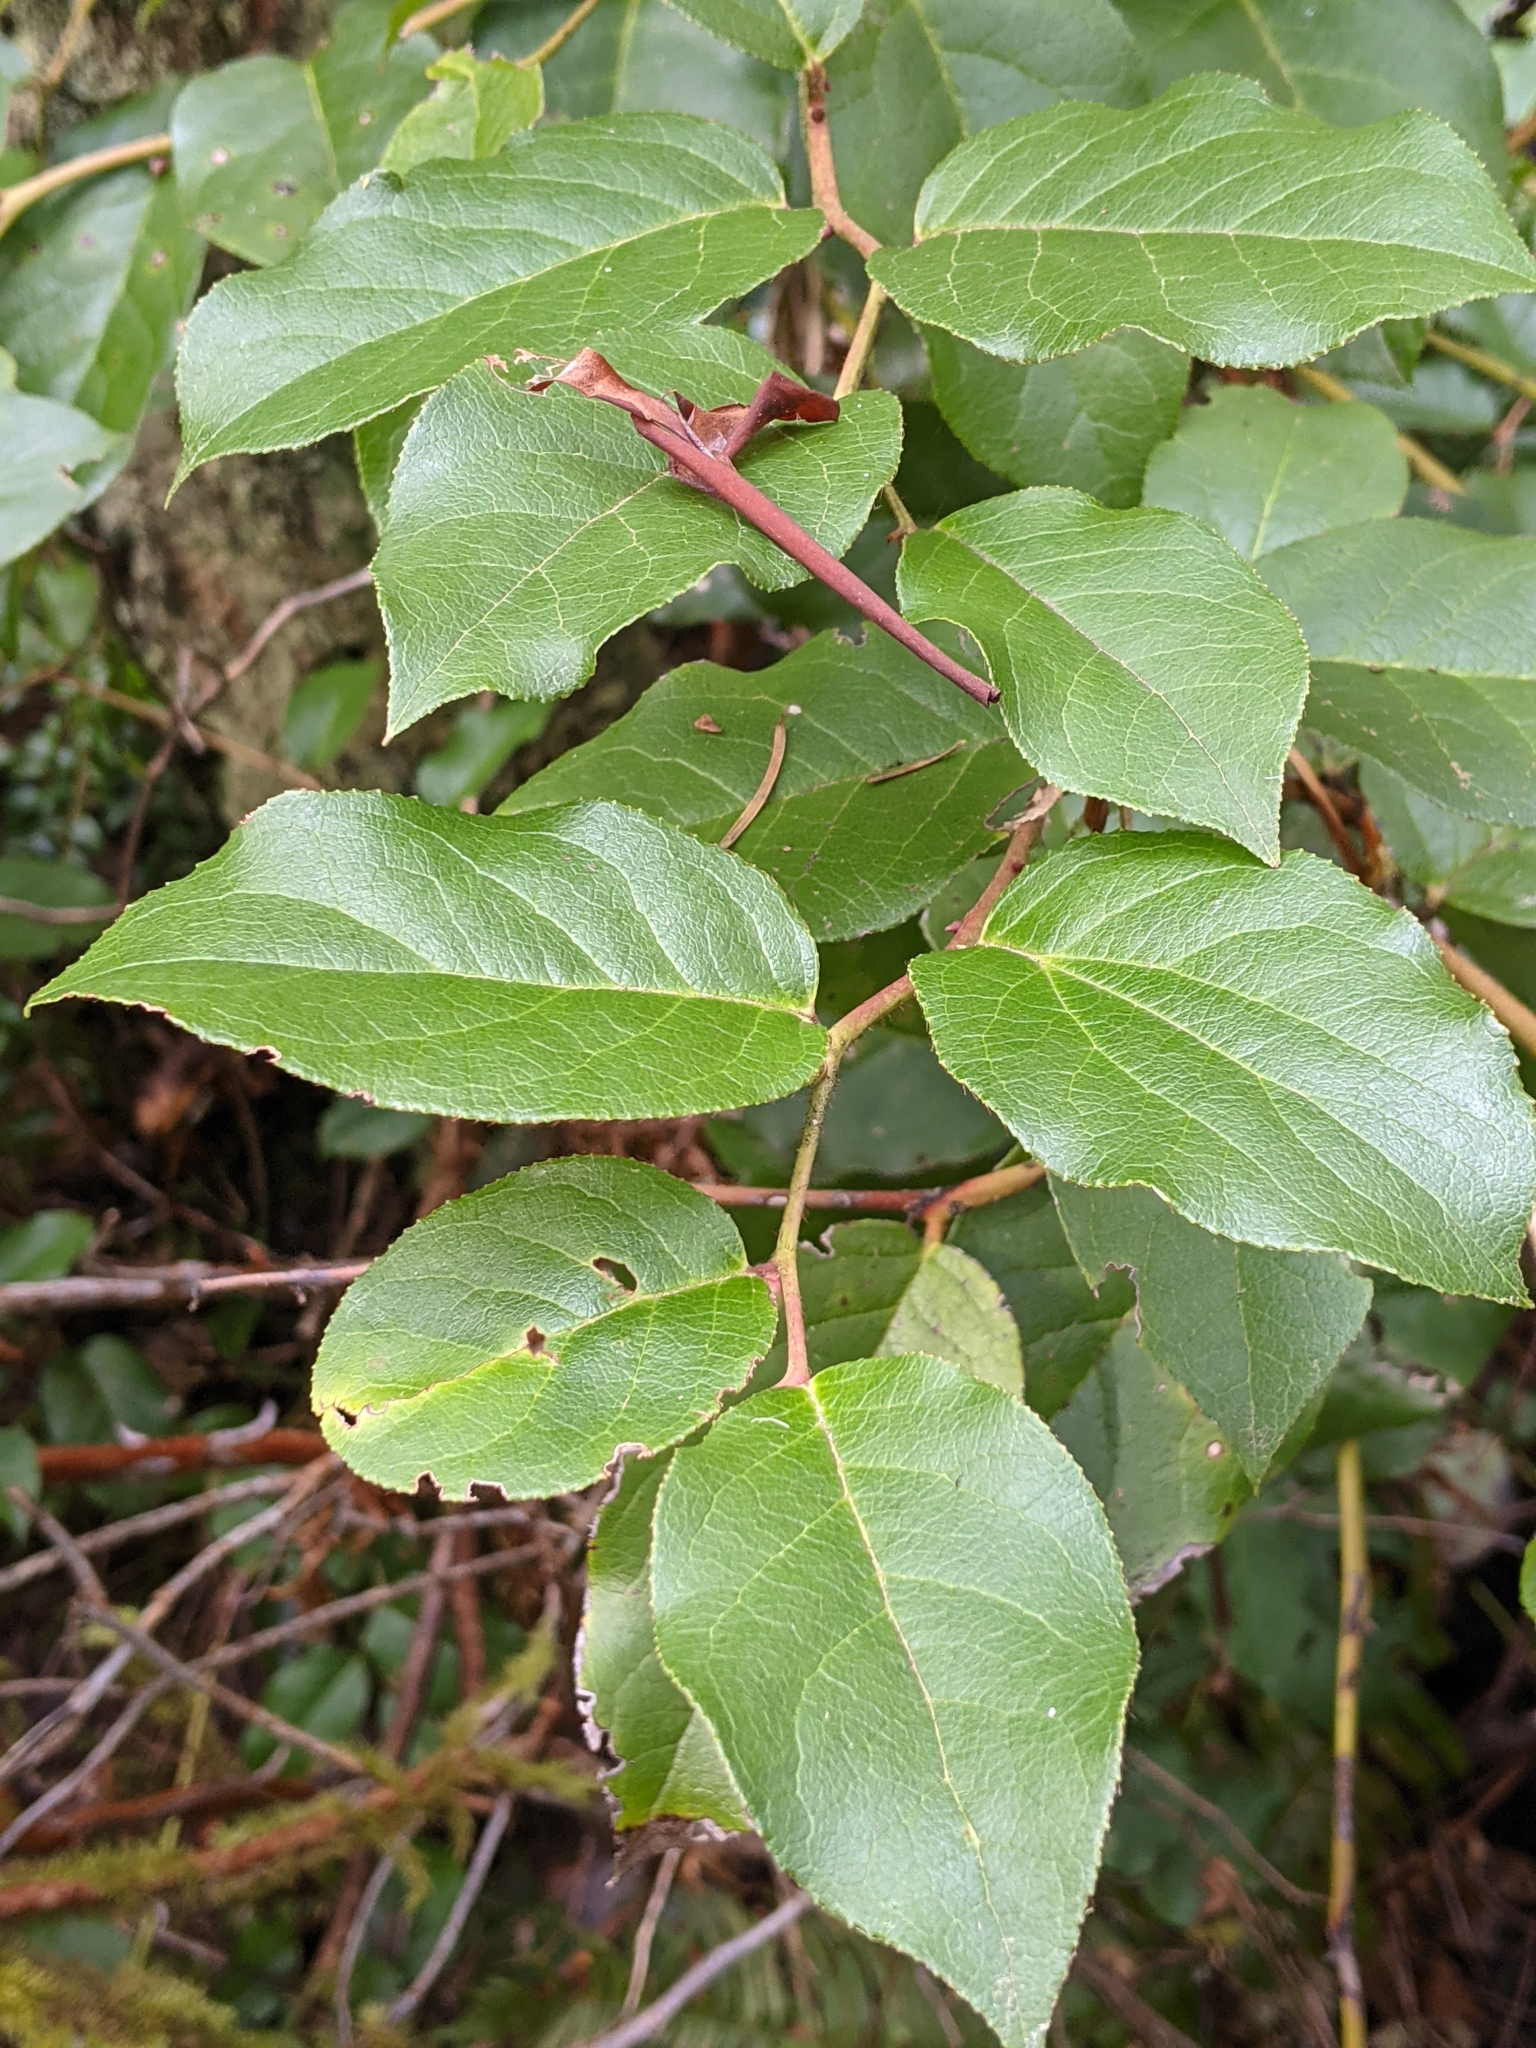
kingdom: Plantae
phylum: Tracheophyta
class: Magnoliopsida
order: Ericales
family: Ericaceae
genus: Gaultheria
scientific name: Gaultheria shallon
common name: Shallon
